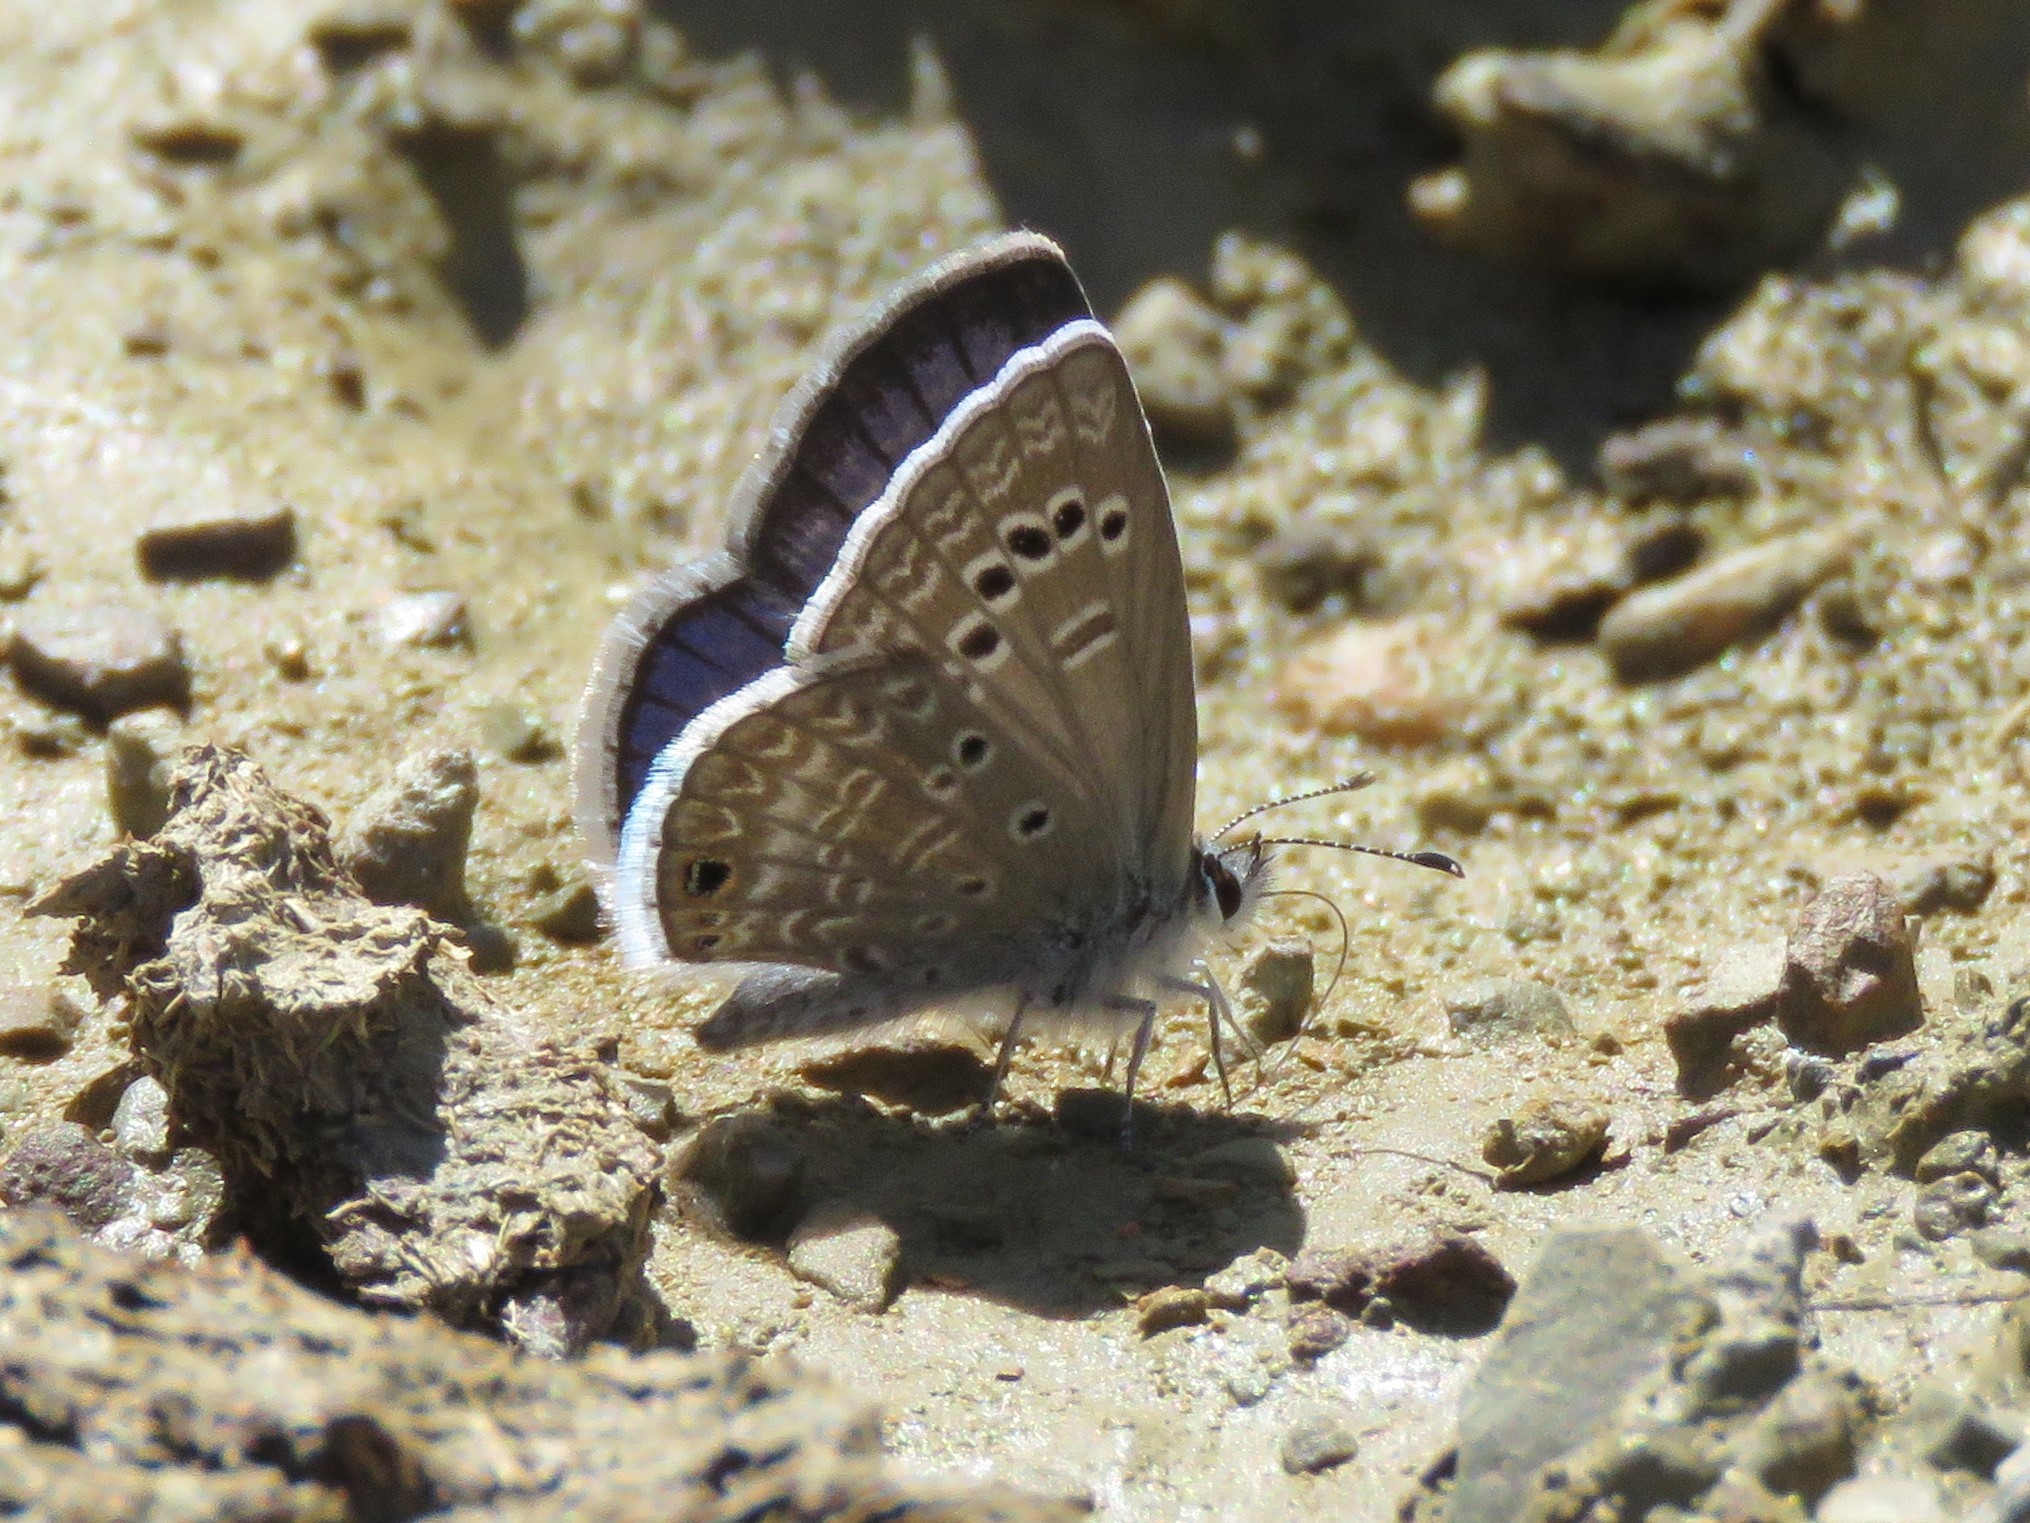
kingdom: Animalia
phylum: Arthropoda
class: Insecta
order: Lepidoptera
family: Lycaenidae
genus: Echinargus
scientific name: Echinargus isola
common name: Reakirt's blue
